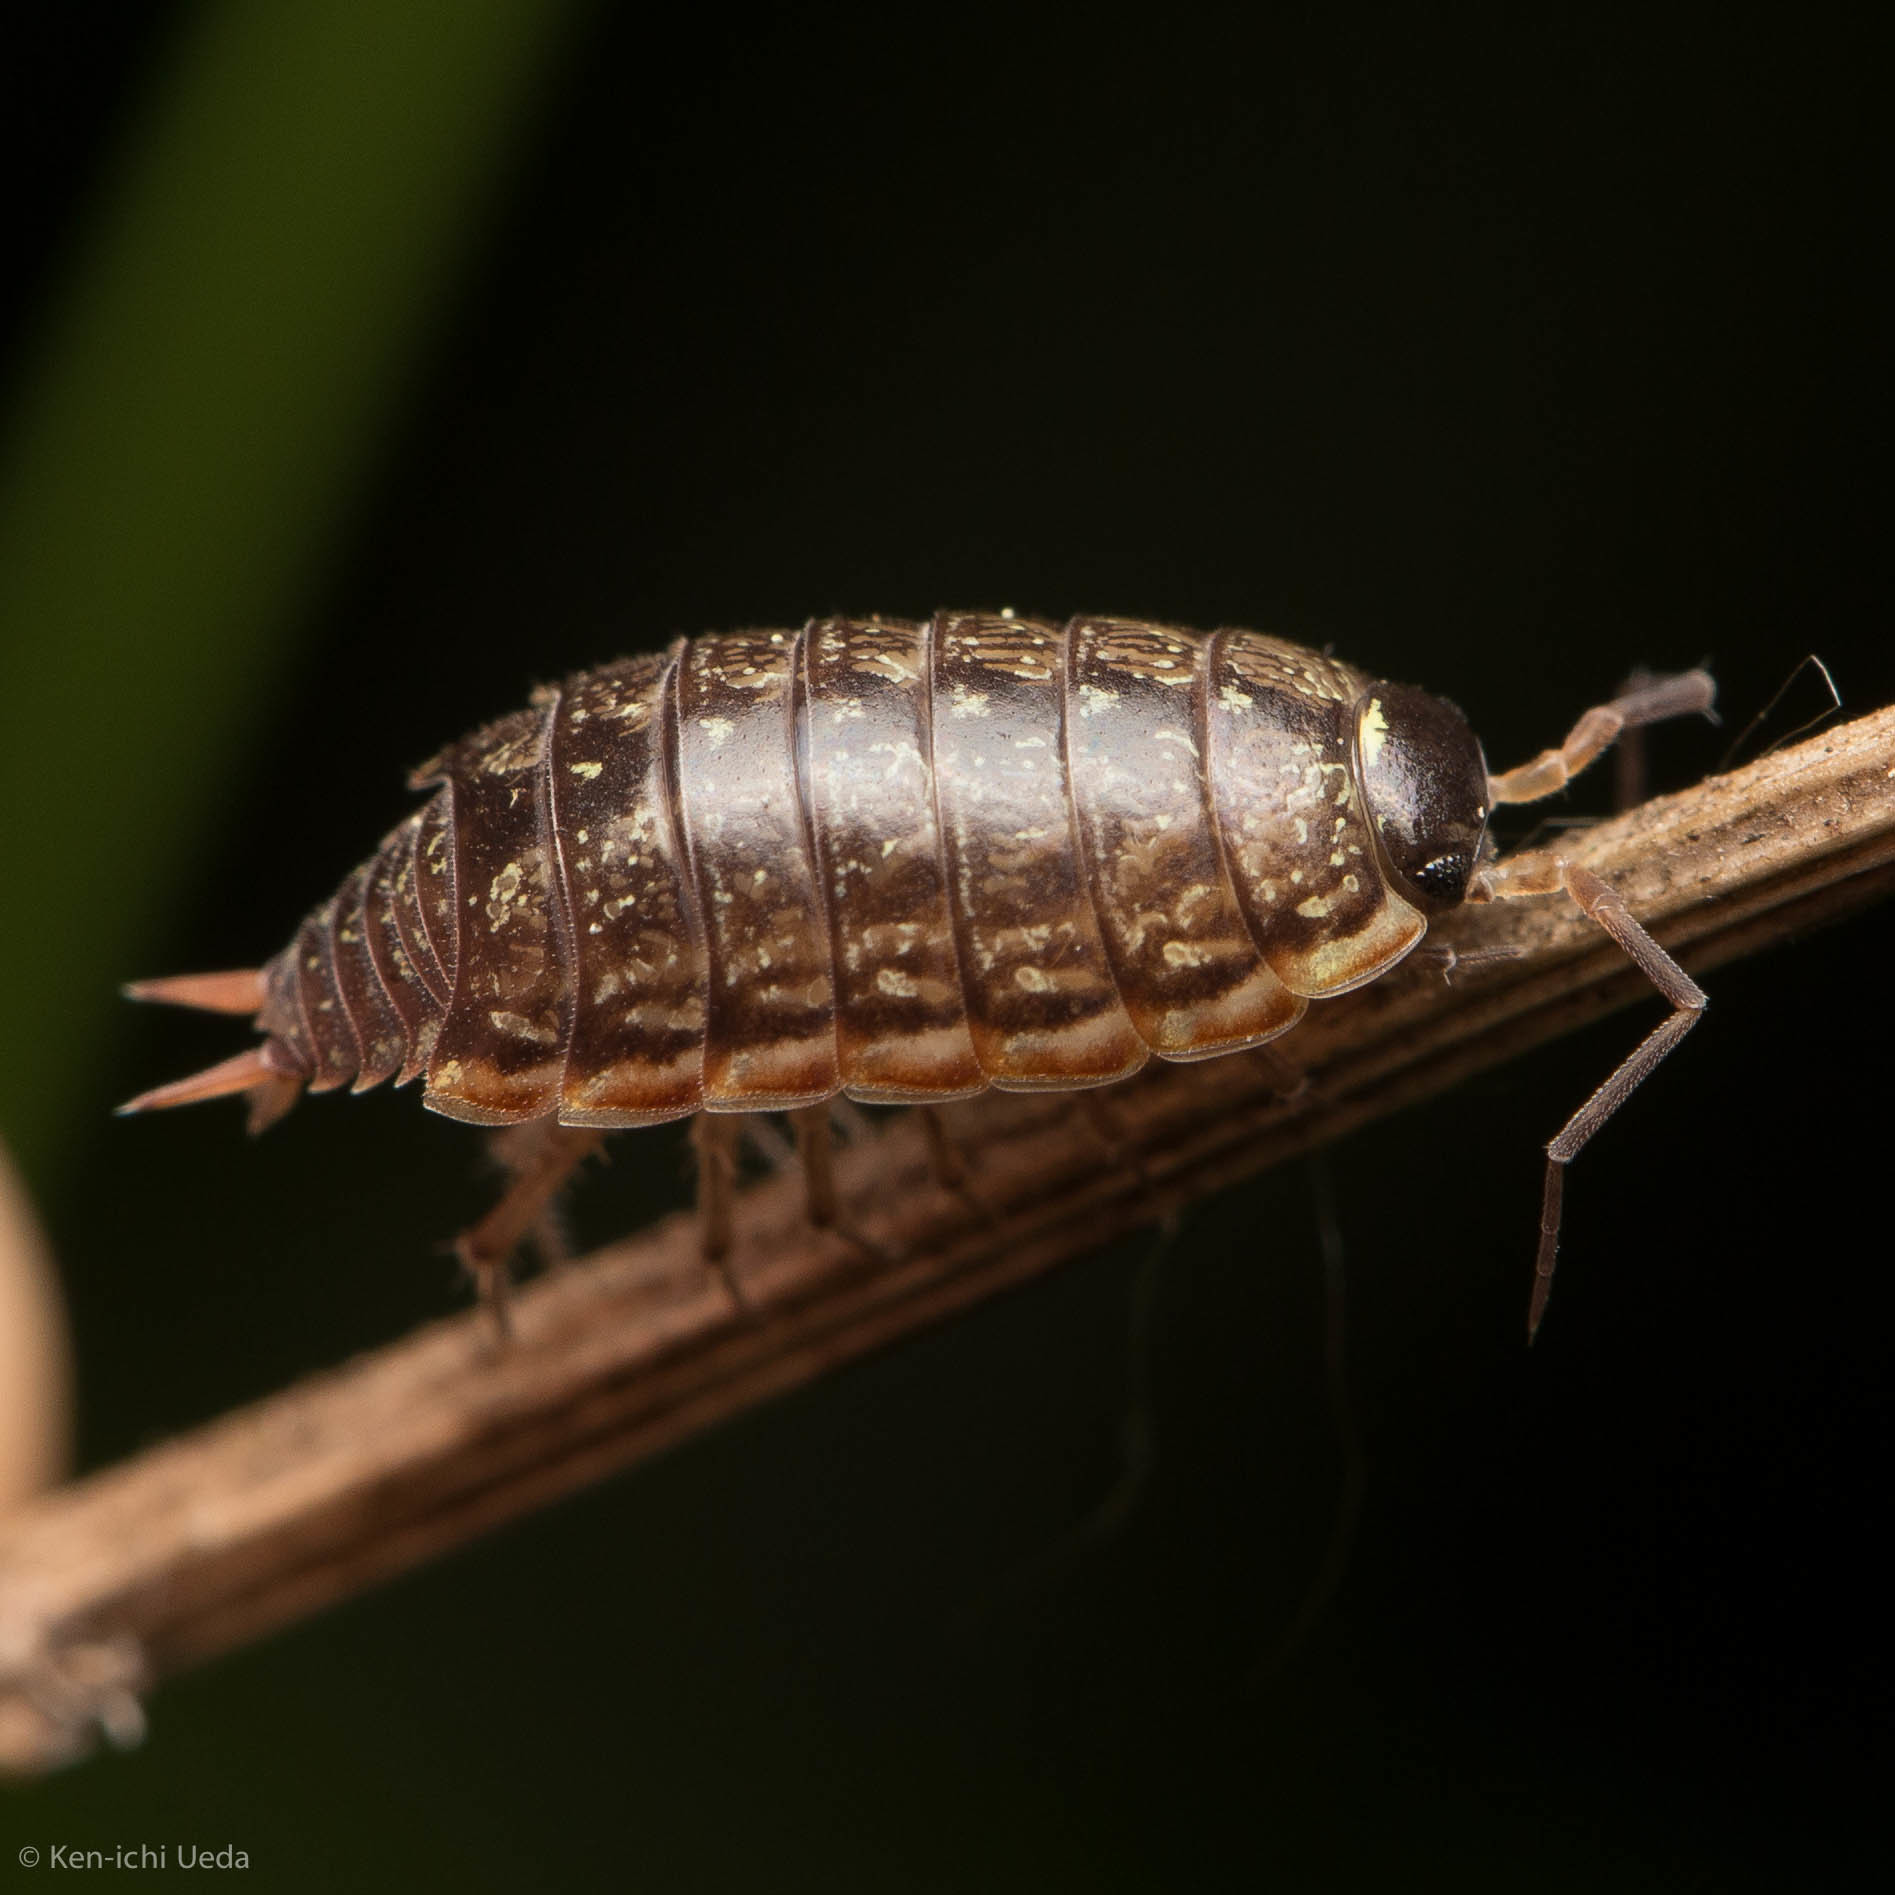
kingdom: Animalia
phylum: Arthropoda
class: Malacostraca
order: Isopoda
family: Philosciidae
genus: Philoscia
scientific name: Philoscia muscorum
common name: Common striped woodlouse
